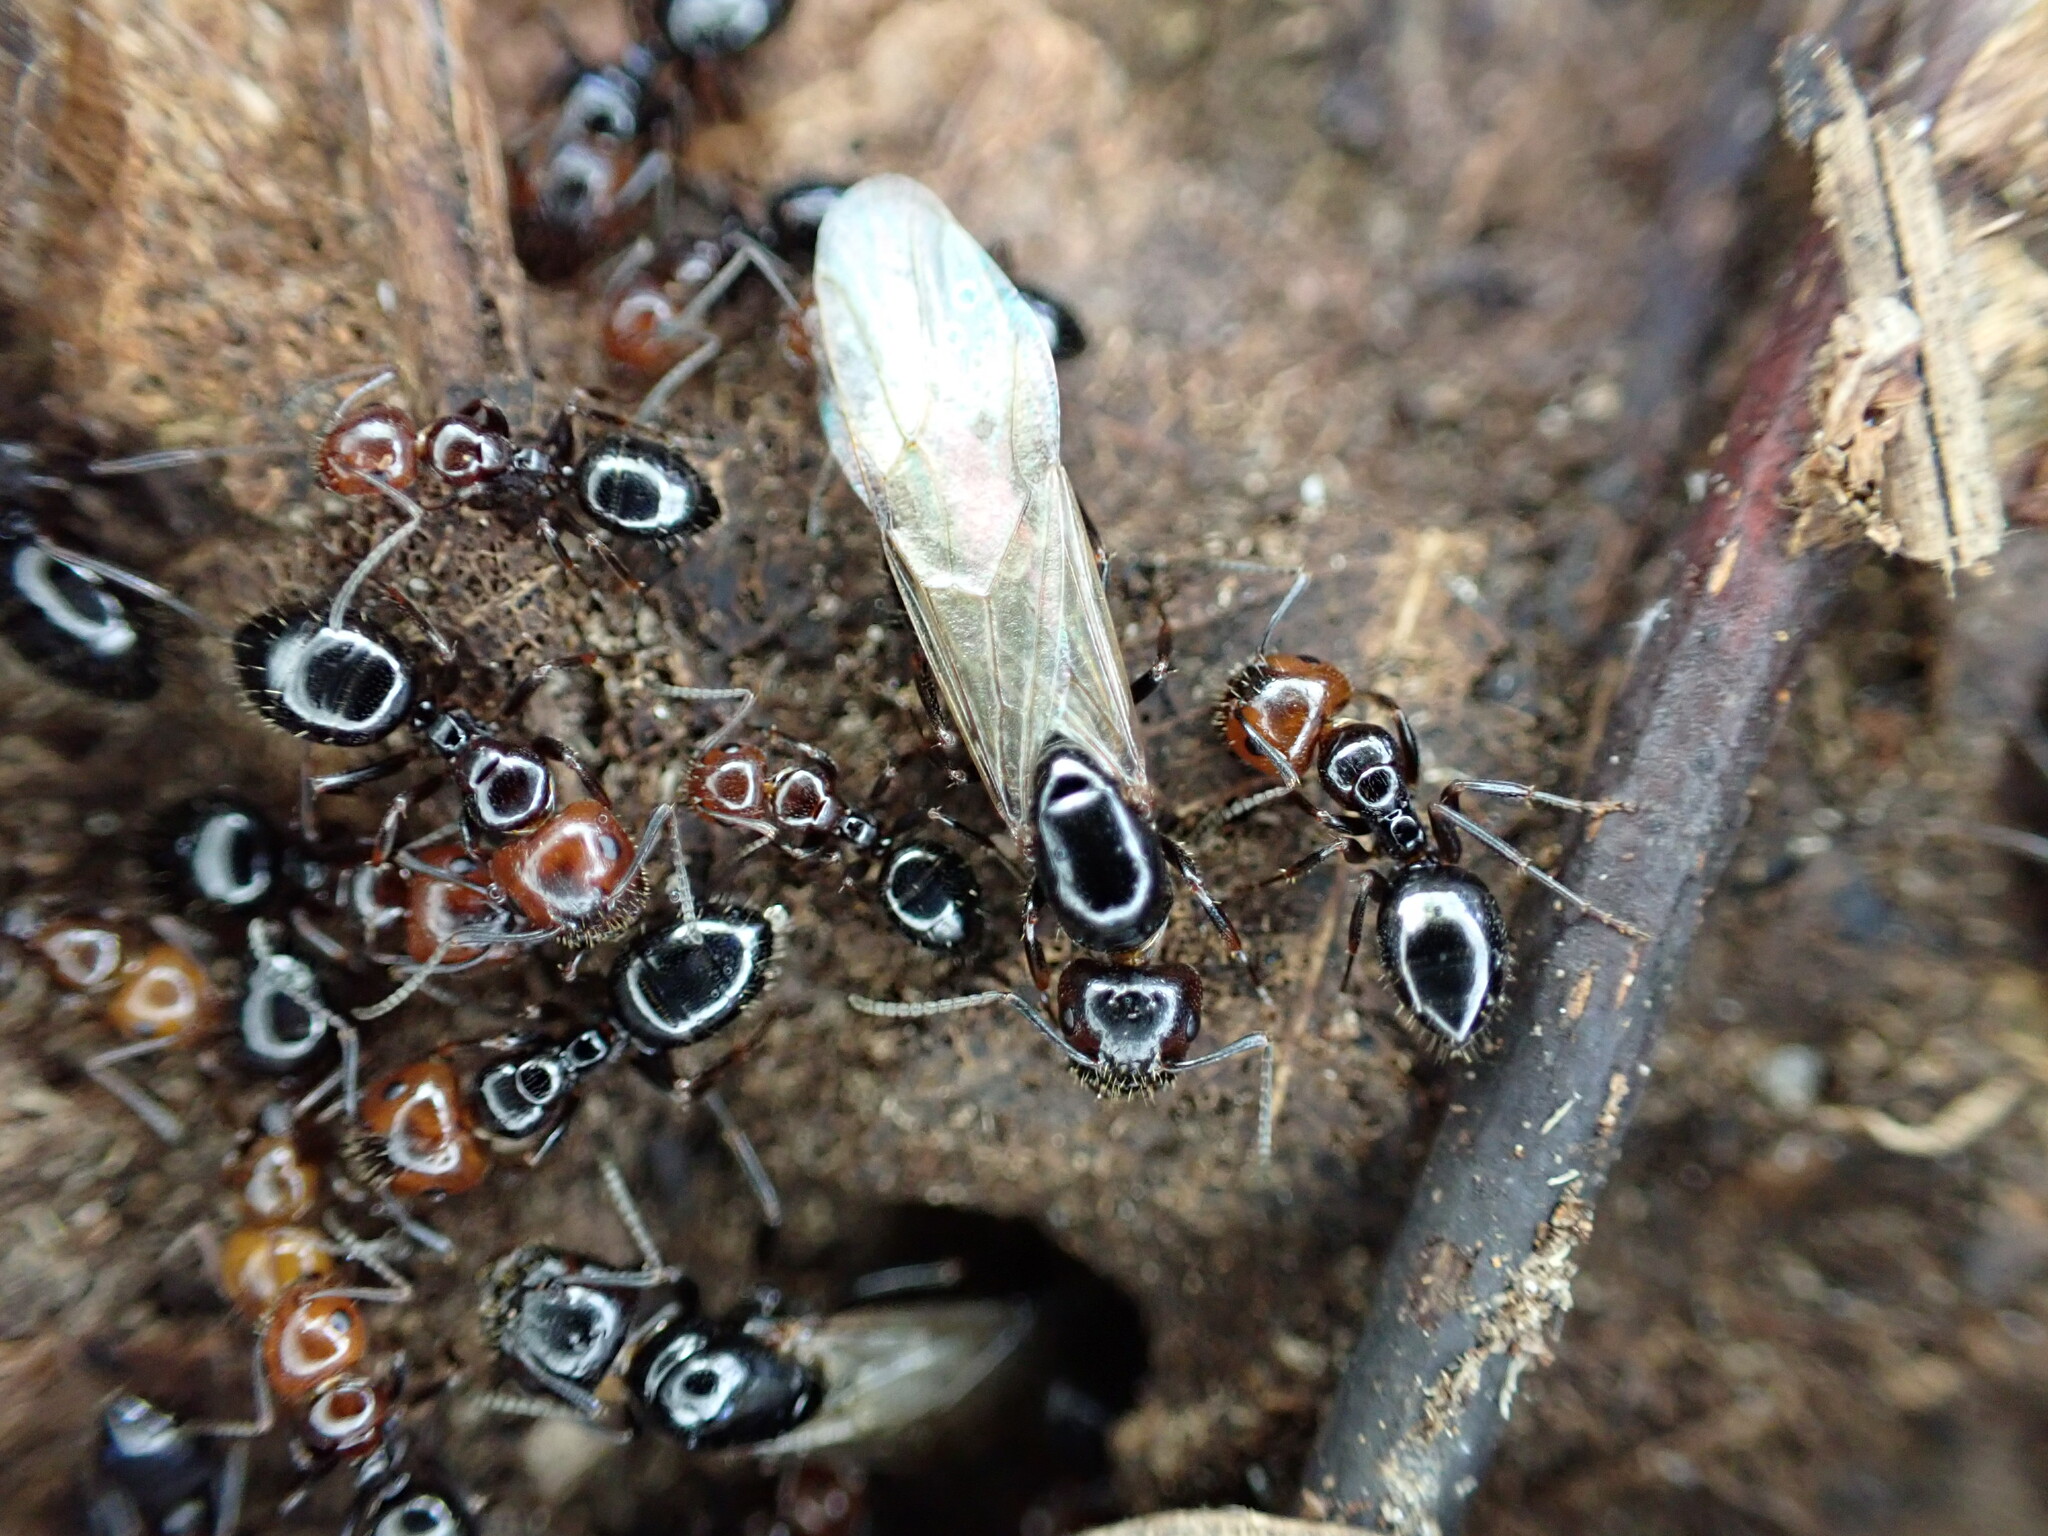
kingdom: Animalia
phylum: Arthropoda
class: Insecta
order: Hymenoptera
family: Formicidae
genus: Camponotus
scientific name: Camponotus lateralis
